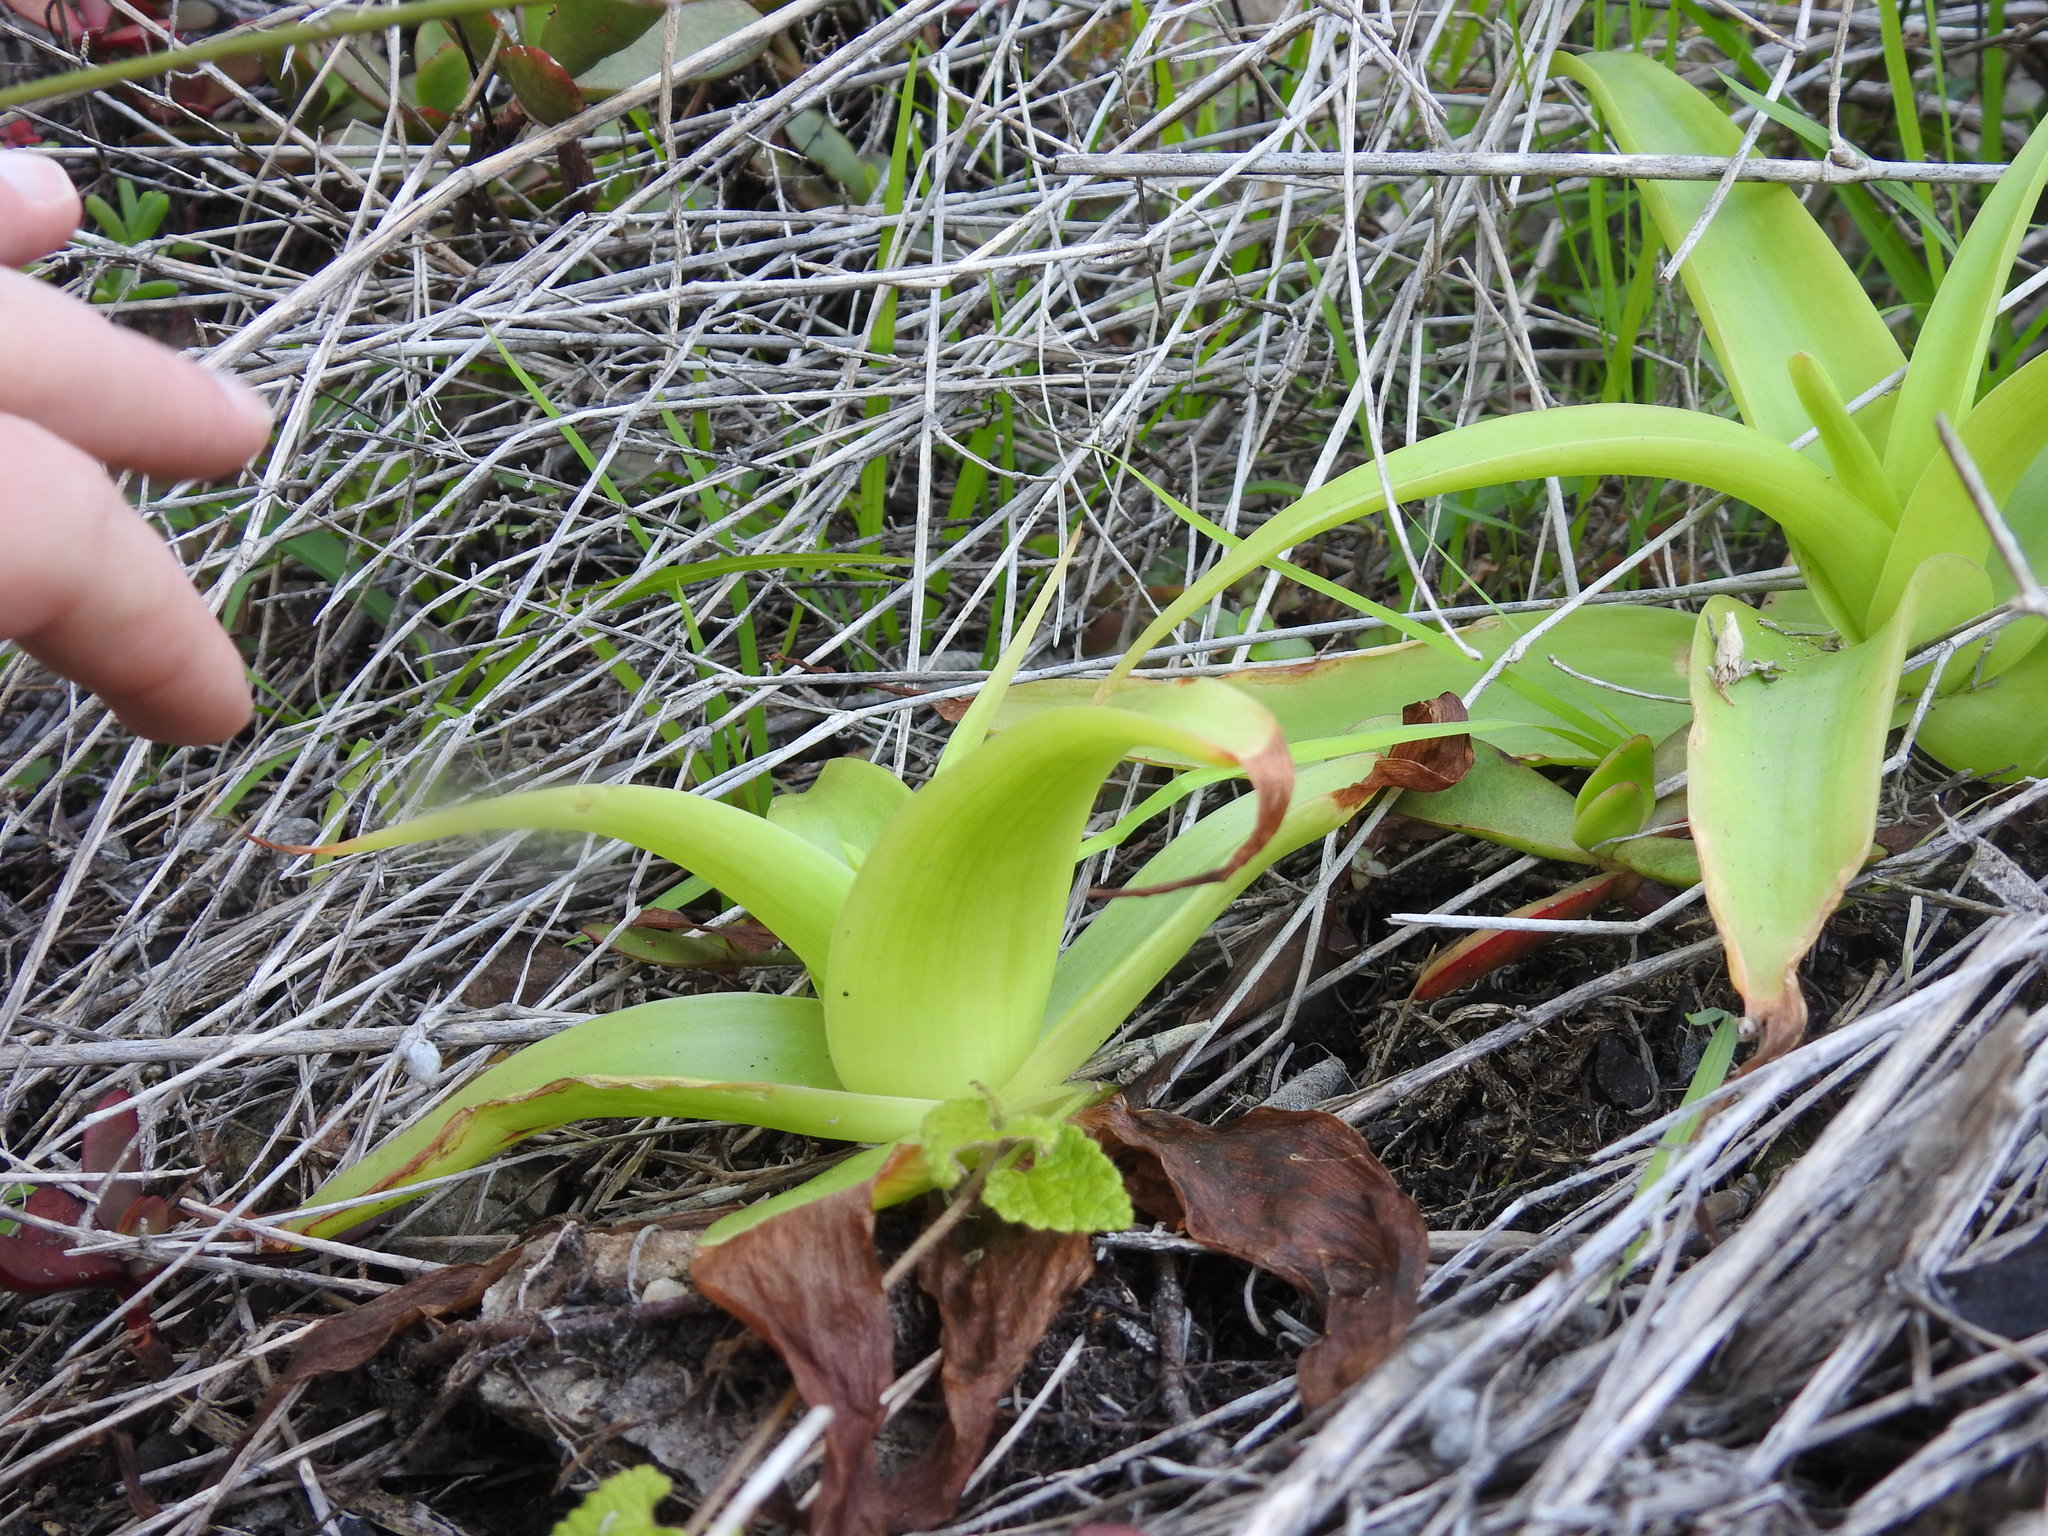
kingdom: Plantae
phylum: Tracheophyta
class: Liliopsida
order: Asparagales
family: Asphodelaceae
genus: Bulbine
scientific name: Bulbine latifolia
